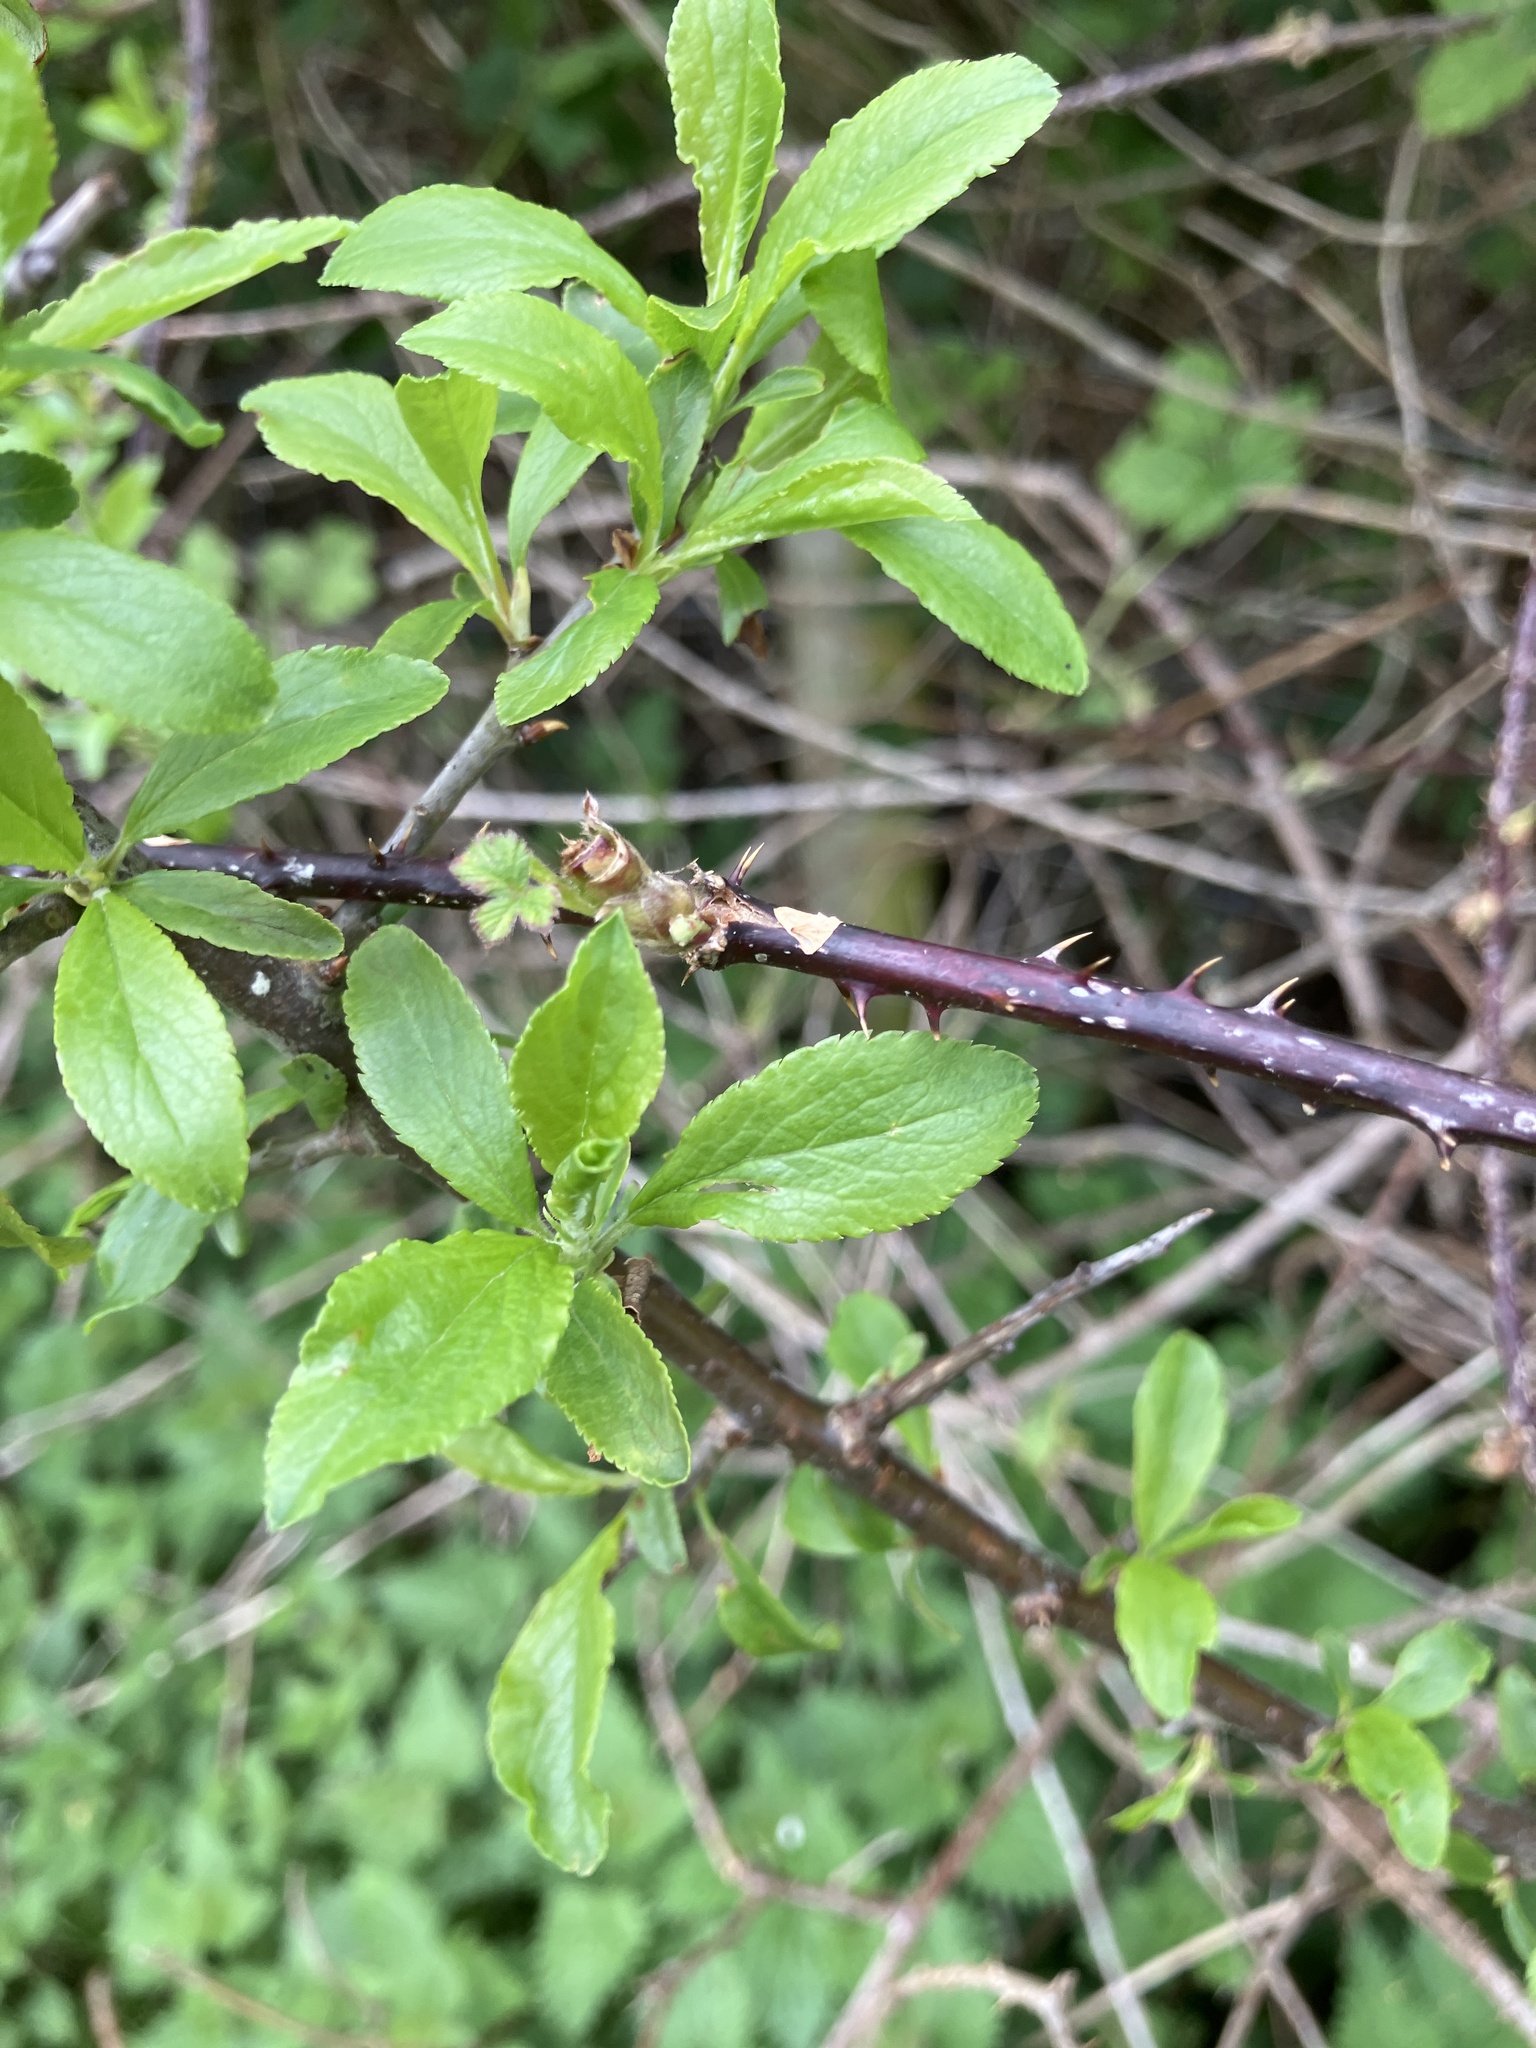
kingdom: Plantae
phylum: Tracheophyta
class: Magnoliopsida
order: Rosales
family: Rosaceae
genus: Prunus
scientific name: Prunus spinosa
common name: Blackthorn
